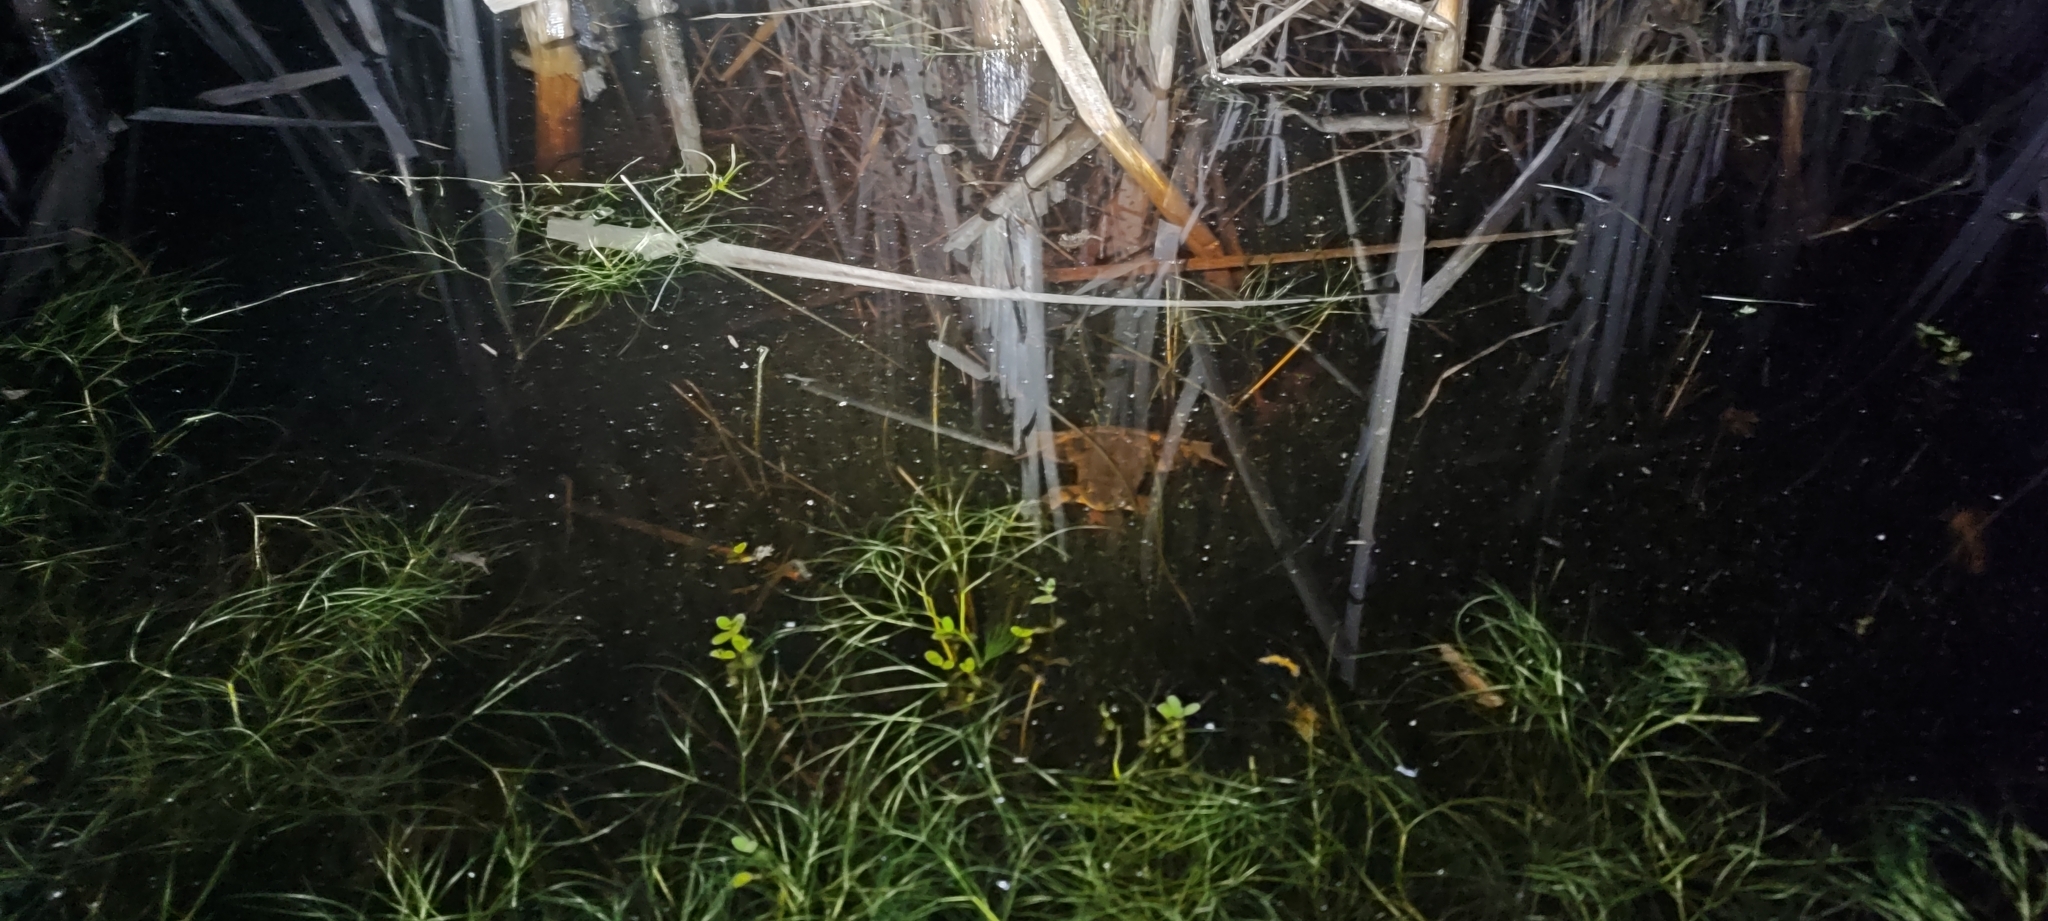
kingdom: Animalia
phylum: Chordata
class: Amphibia
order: Anura
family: Ranidae
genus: Rana
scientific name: Rana dalmatina
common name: Agile frog
